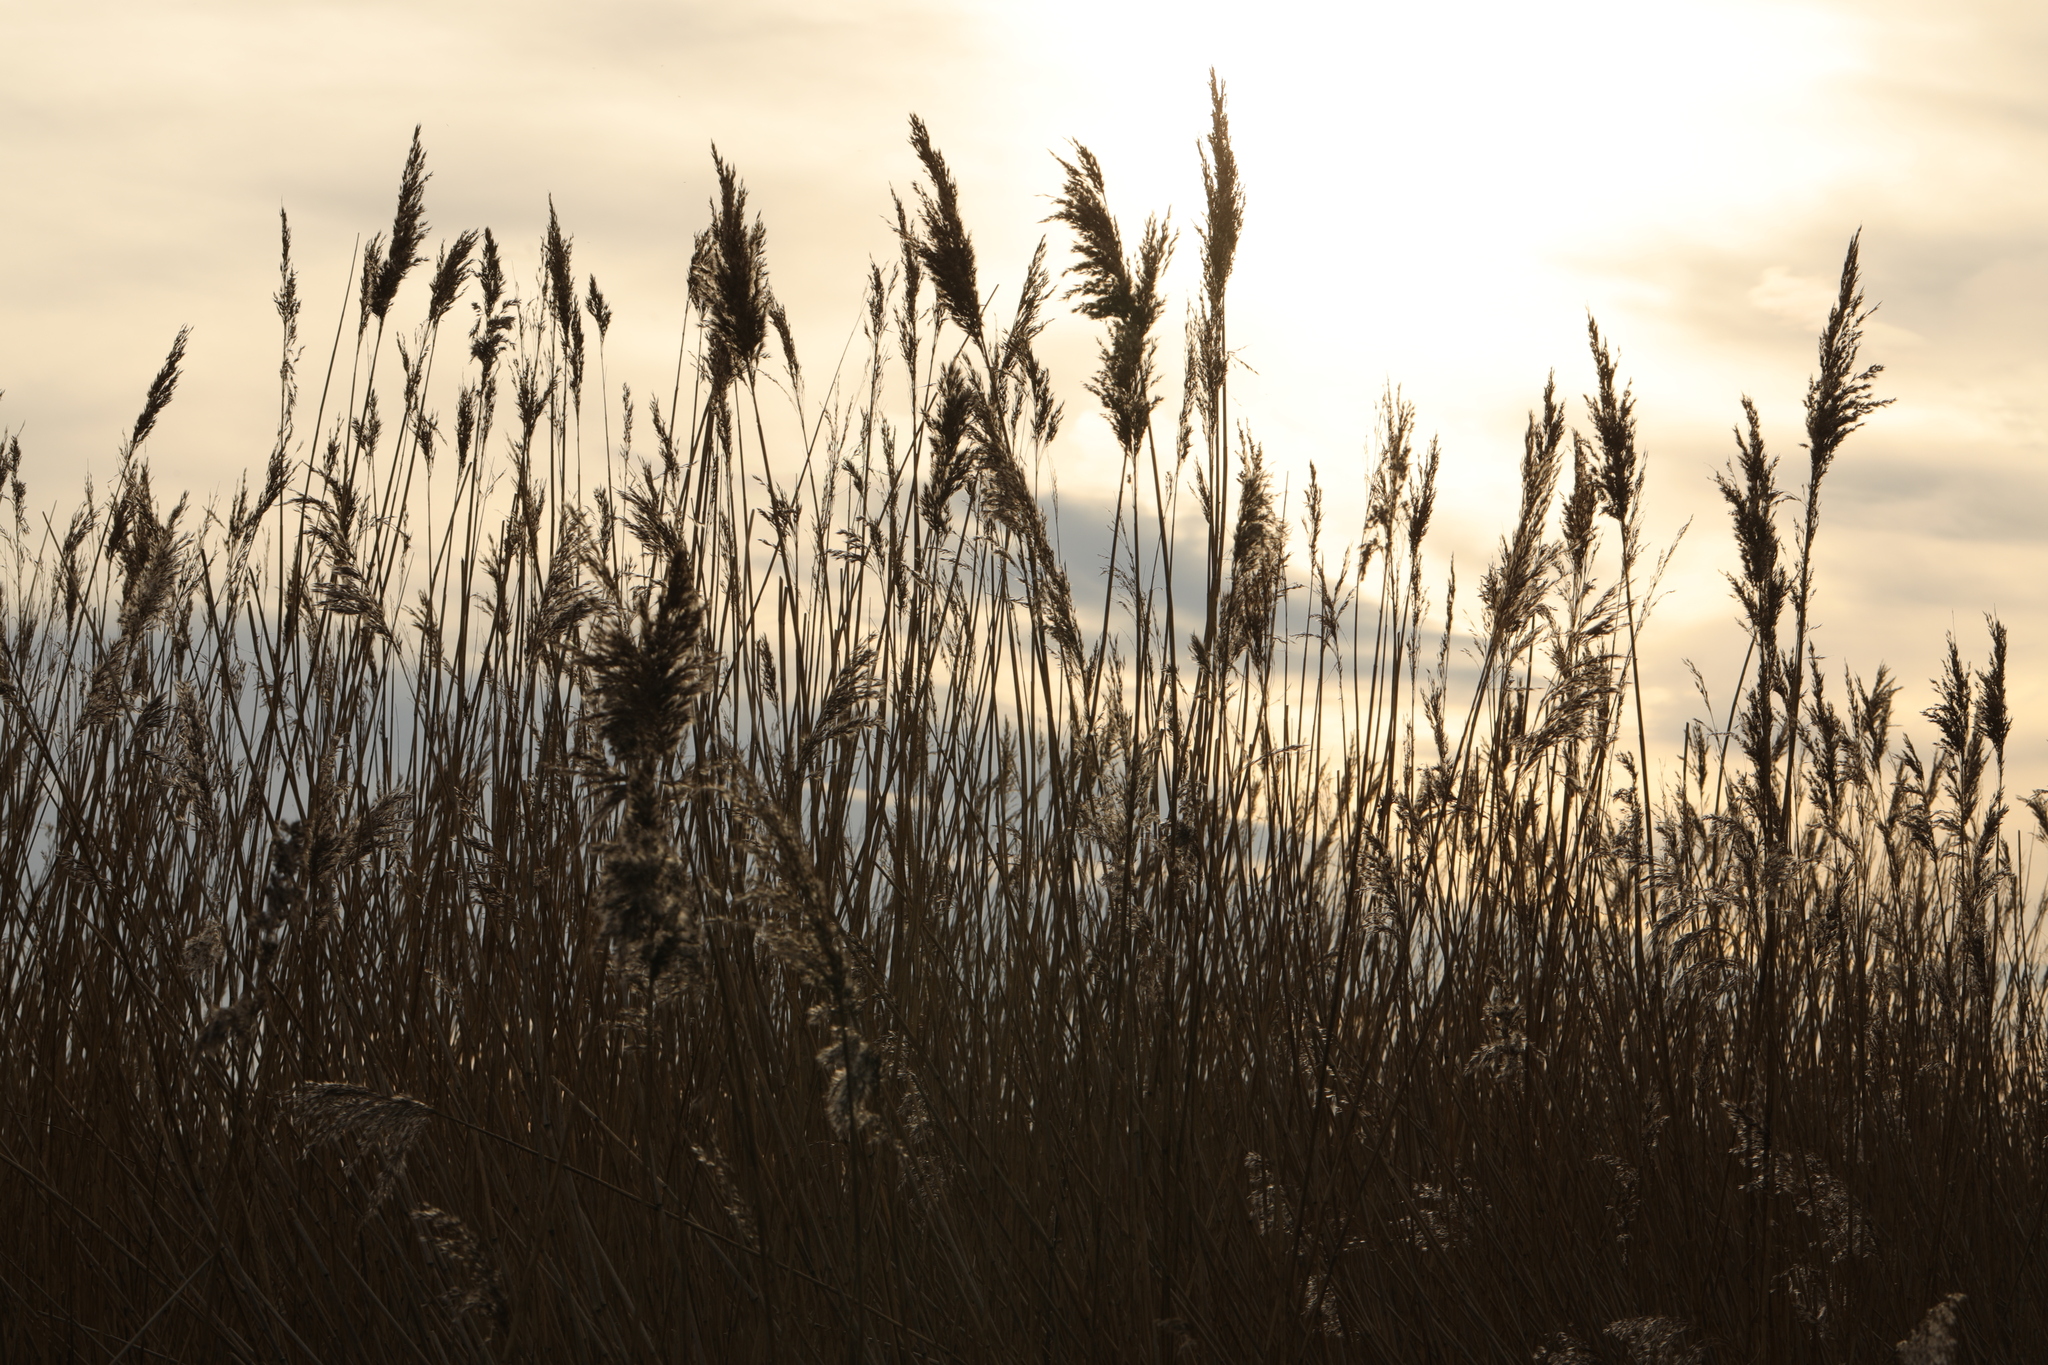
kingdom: Plantae
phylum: Tracheophyta
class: Liliopsida
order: Poales
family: Poaceae
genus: Phragmites
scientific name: Phragmites australis
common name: Common reed
